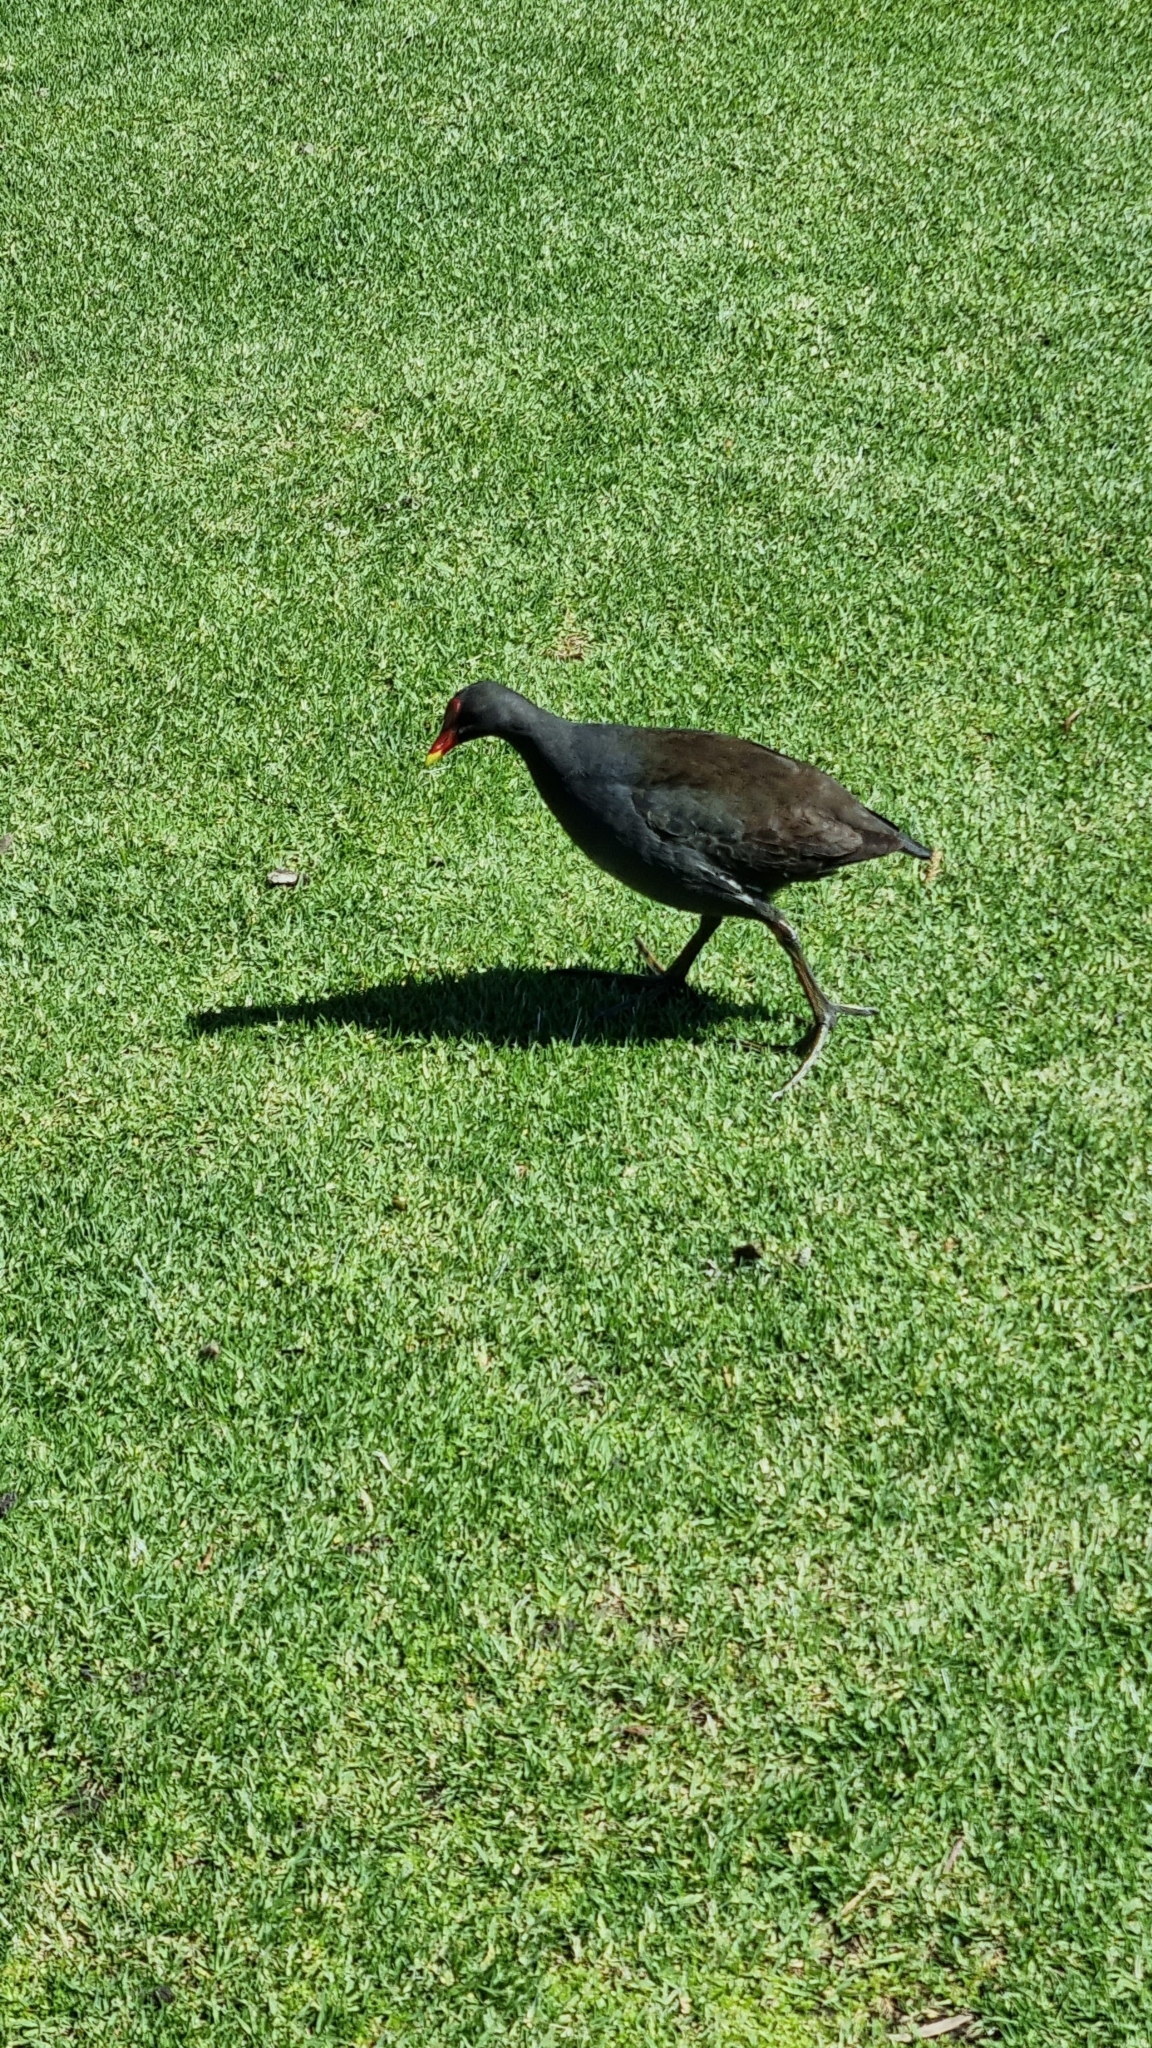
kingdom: Animalia
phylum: Chordata
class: Aves
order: Gruiformes
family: Rallidae
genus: Gallinula
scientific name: Gallinula tenebrosa
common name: Dusky moorhen
